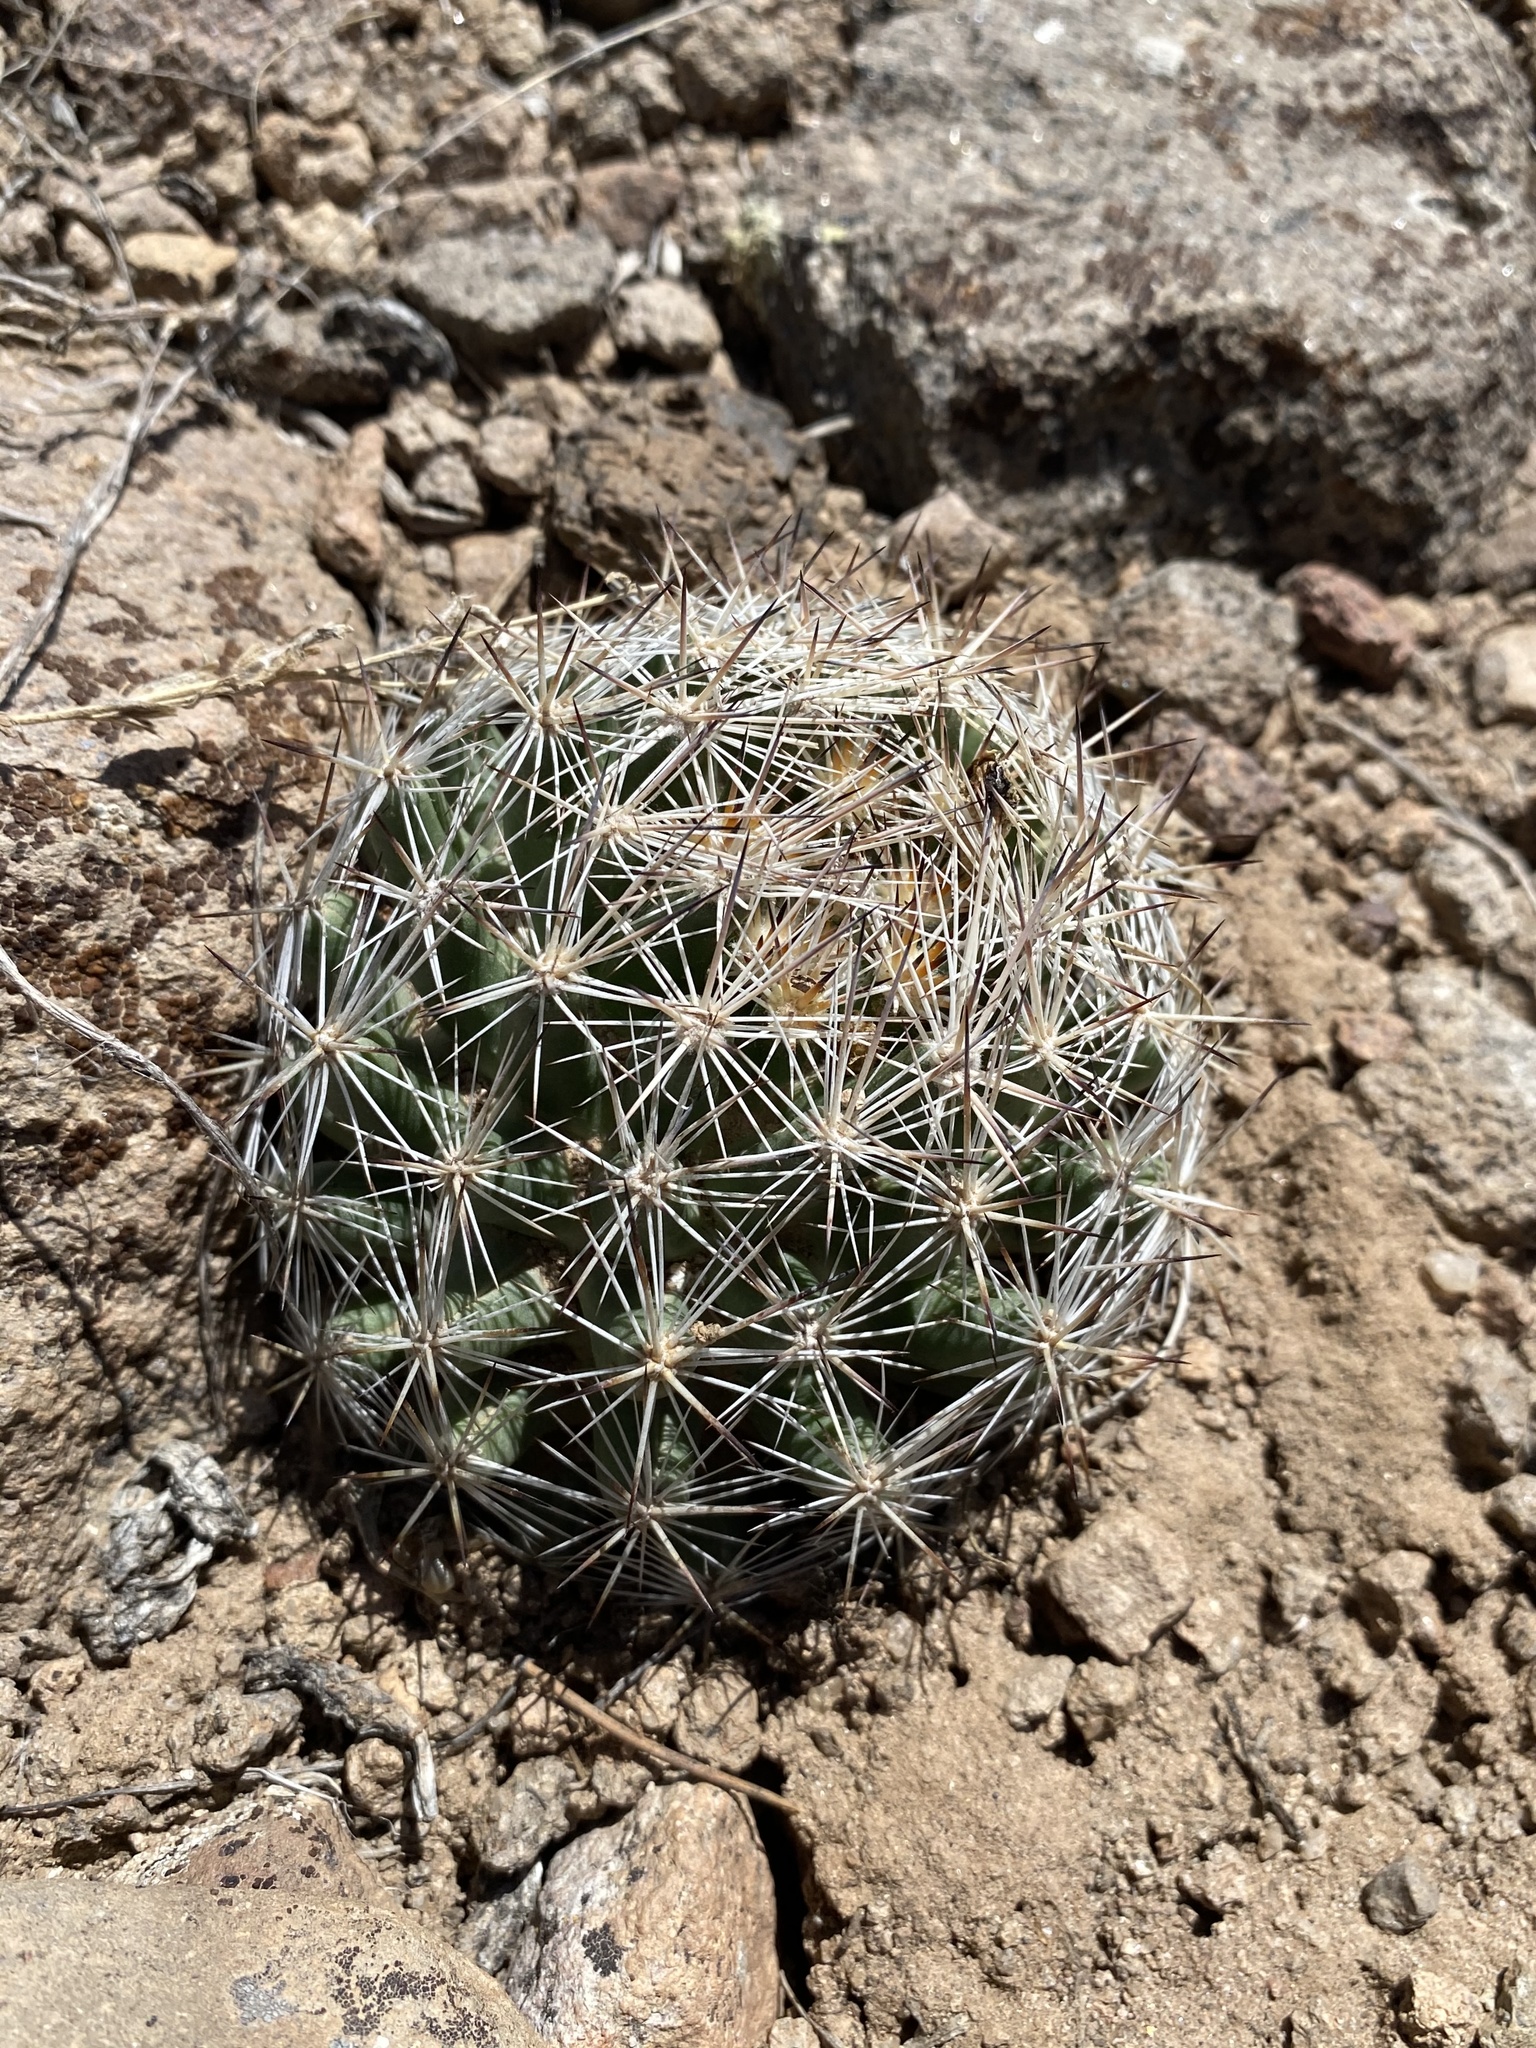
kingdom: Plantae
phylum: Tracheophyta
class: Magnoliopsida
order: Caryophyllales
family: Cactaceae
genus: Pelecyphora
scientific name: Pelecyphora vivipara
